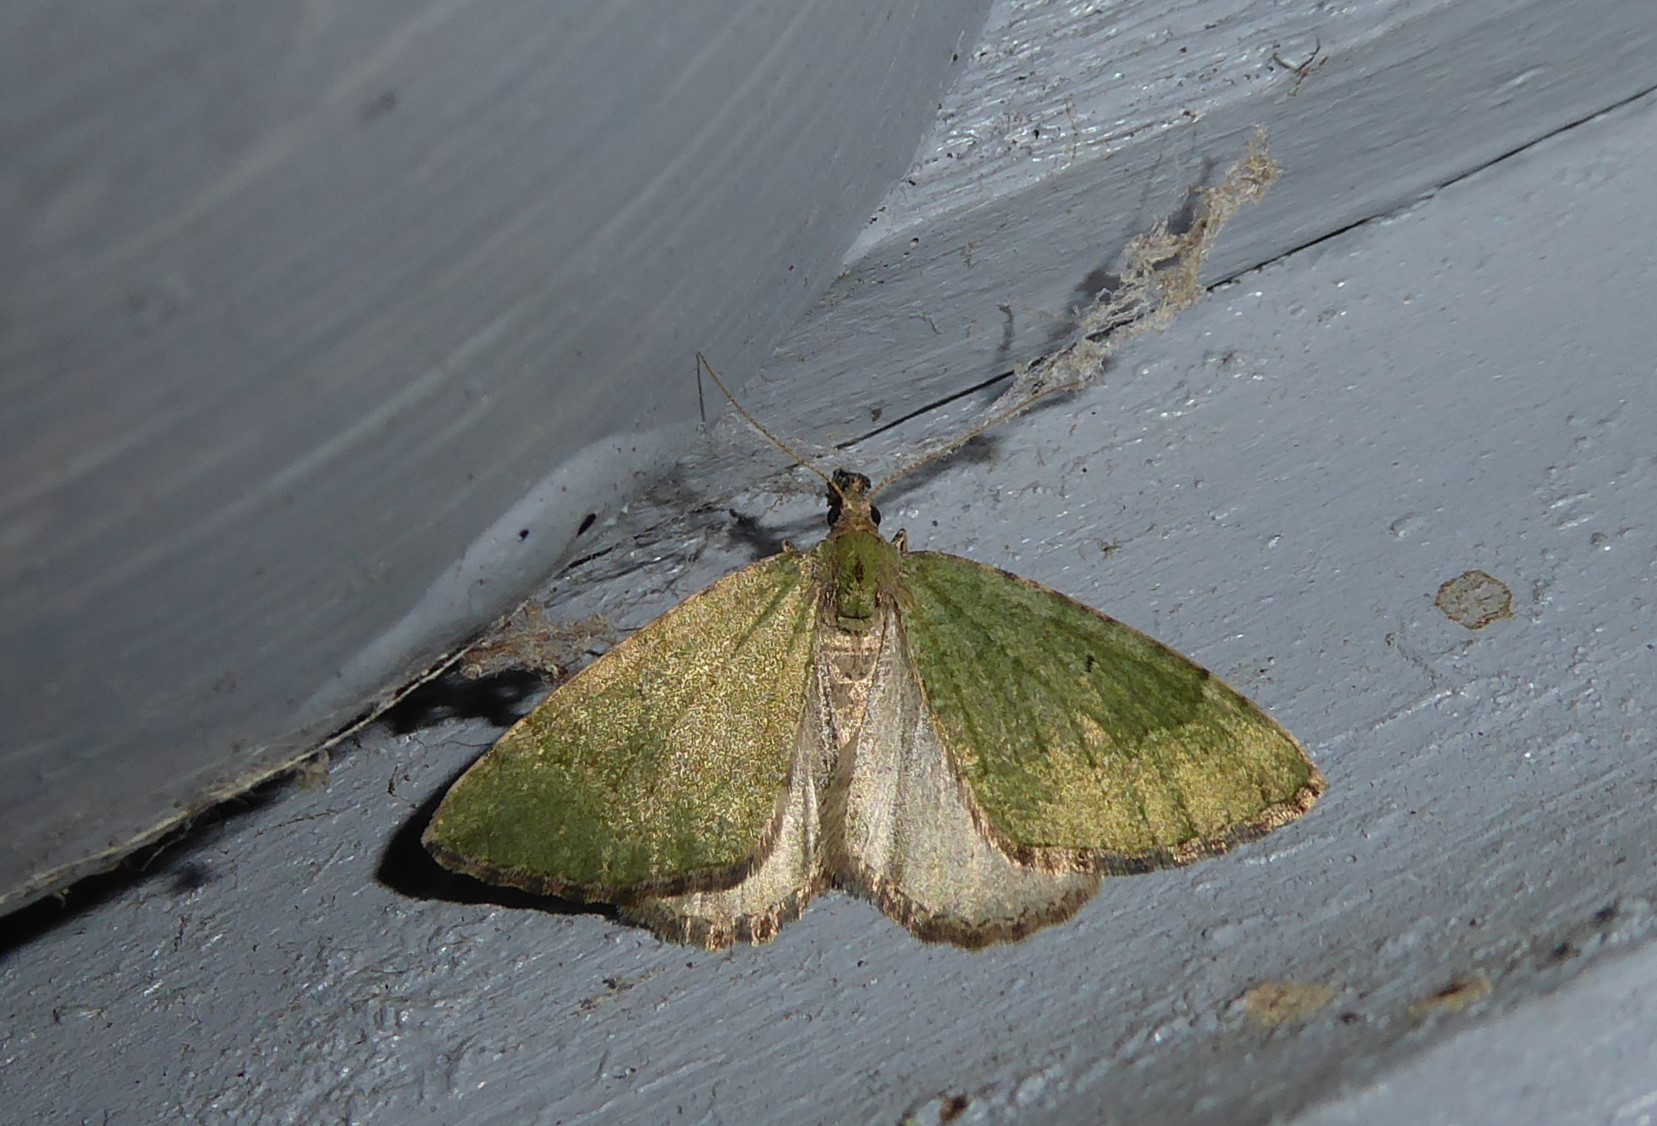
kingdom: Animalia
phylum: Arthropoda
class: Insecta
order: Lepidoptera
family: Geometridae
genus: Epyaxa
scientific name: Epyaxa rosearia
